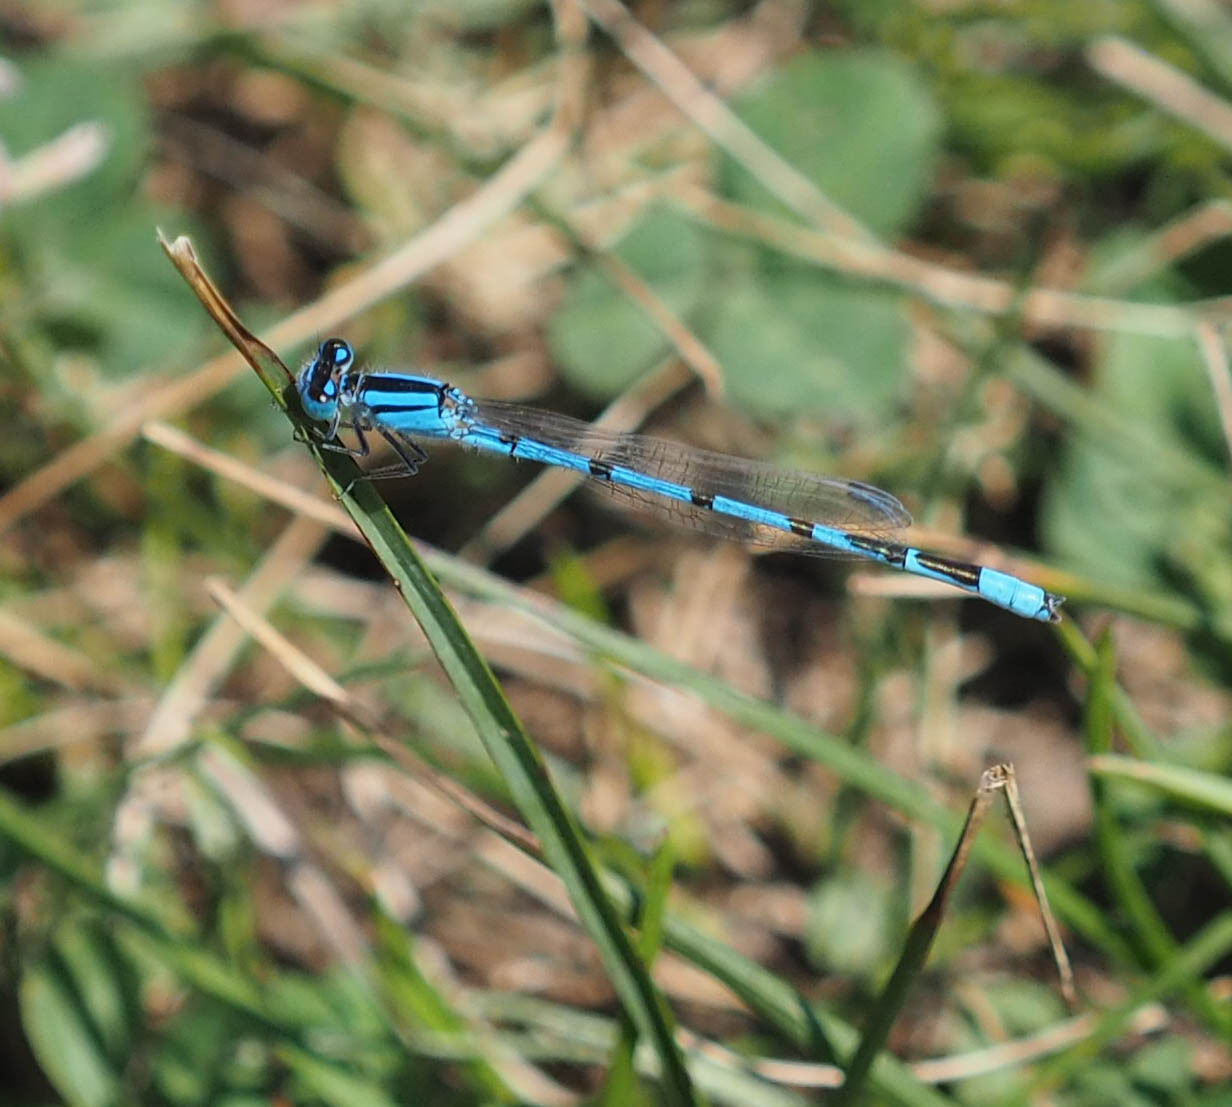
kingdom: Animalia
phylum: Arthropoda
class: Insecta
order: Odonata
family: Coenagrionidae
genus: Enallagma
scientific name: Enallagma civile
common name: Damselfly
